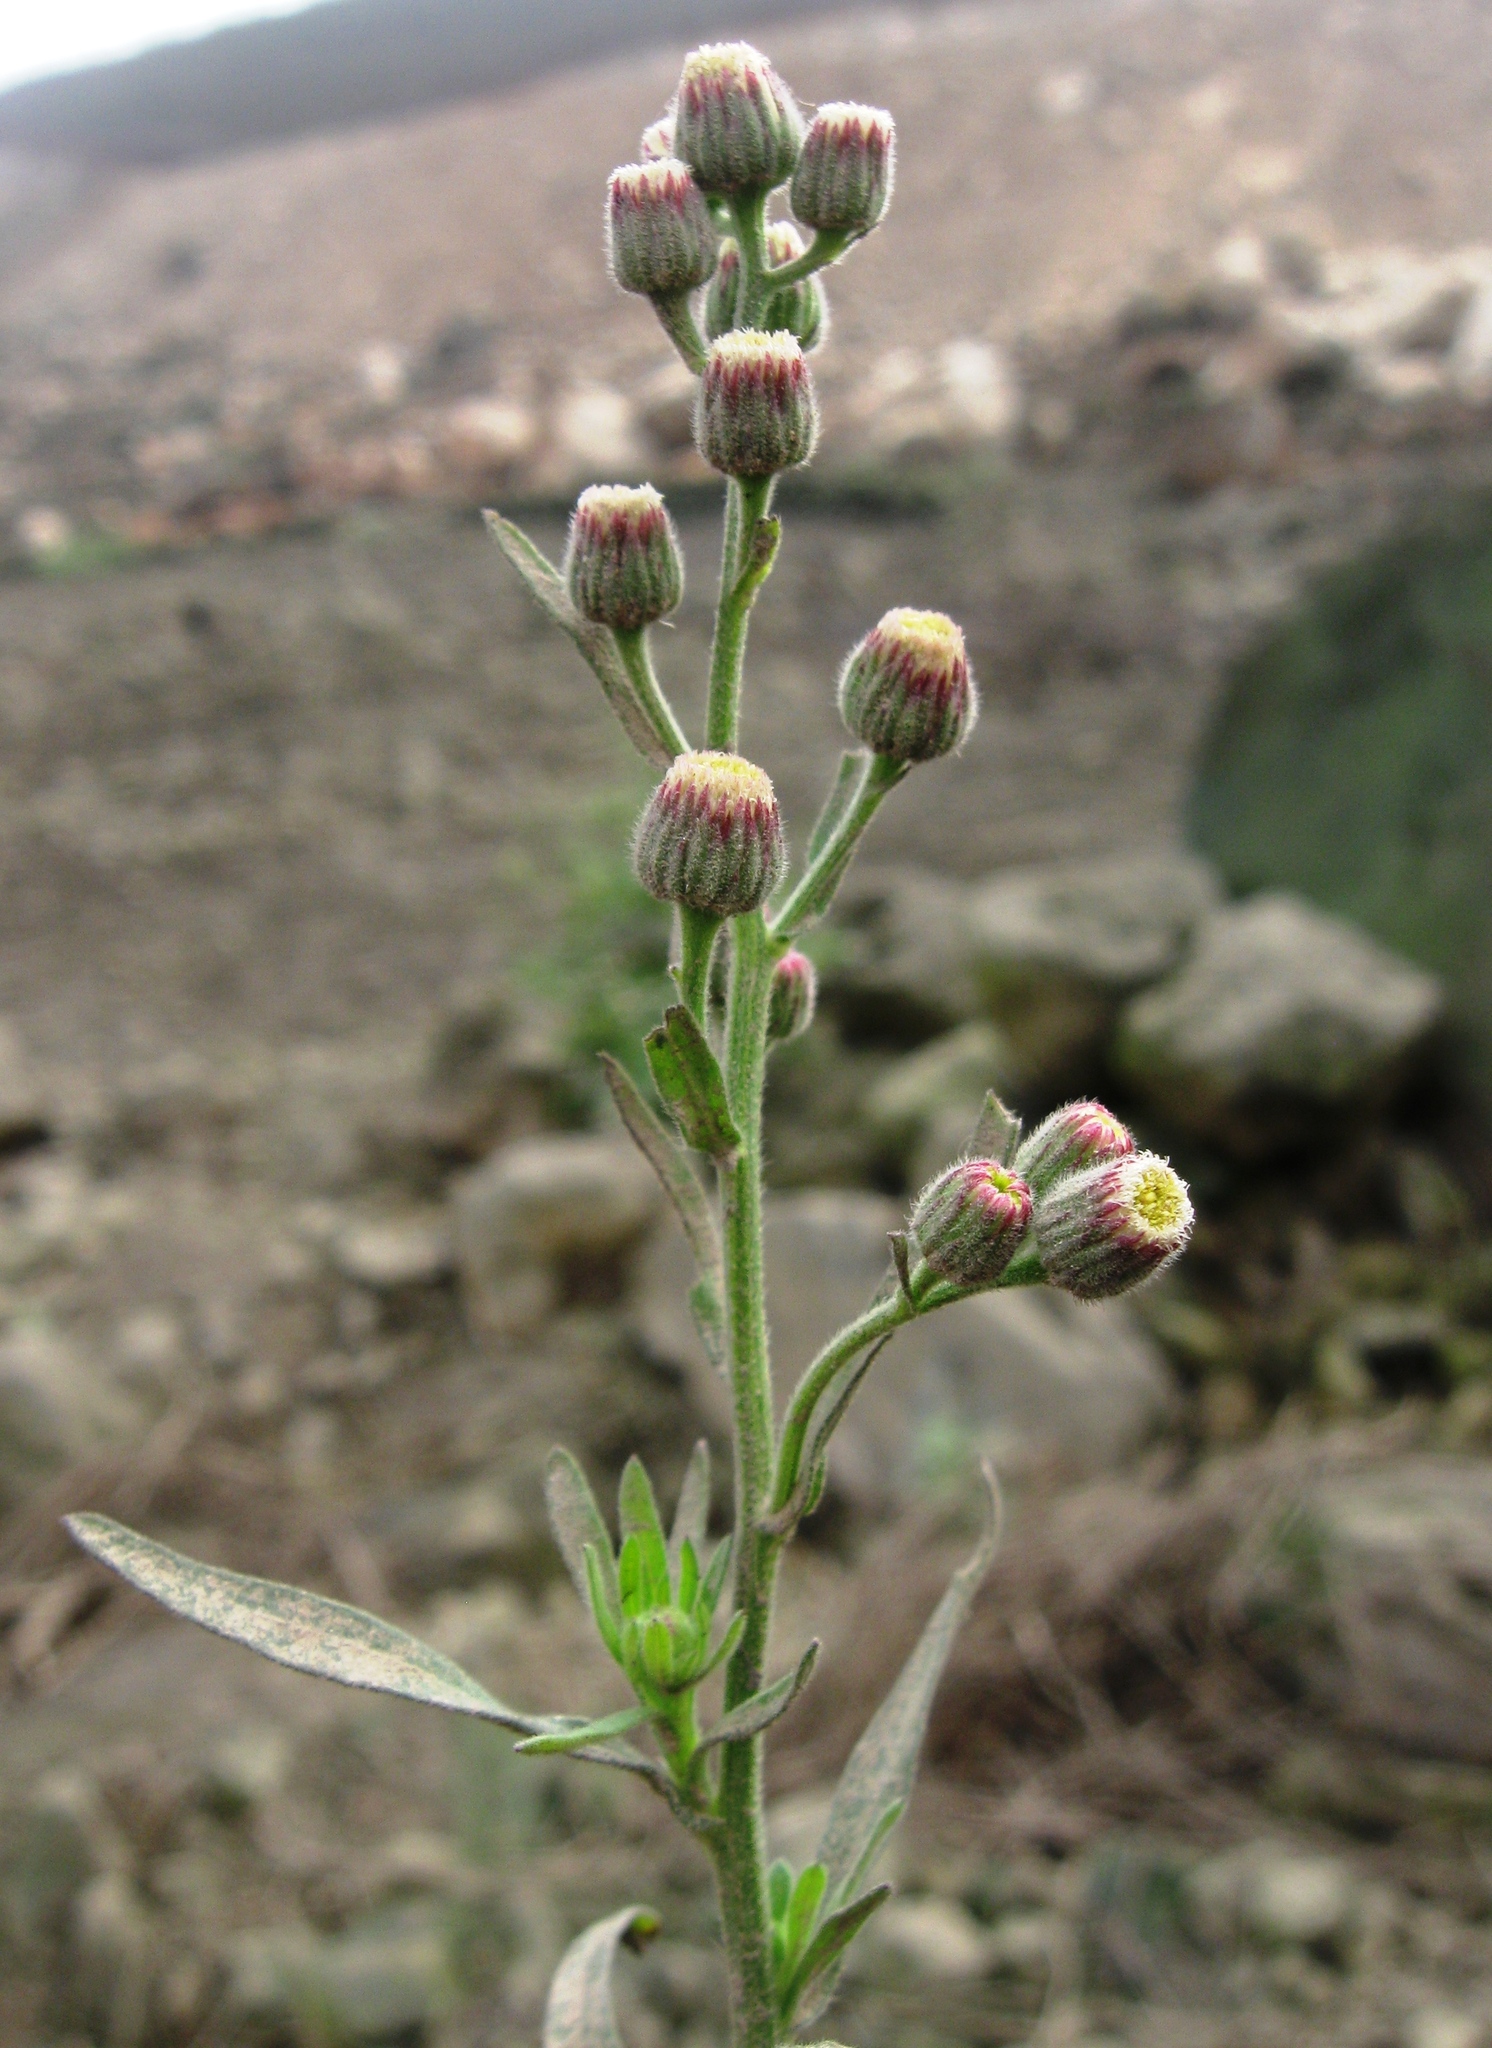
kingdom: Plantae
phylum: Tracheophyta
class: Magnoliopsida
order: Asterales
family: Asteraceae
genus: Erigeron
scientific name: Erigeron bonariensis
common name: Argentine fleabane
